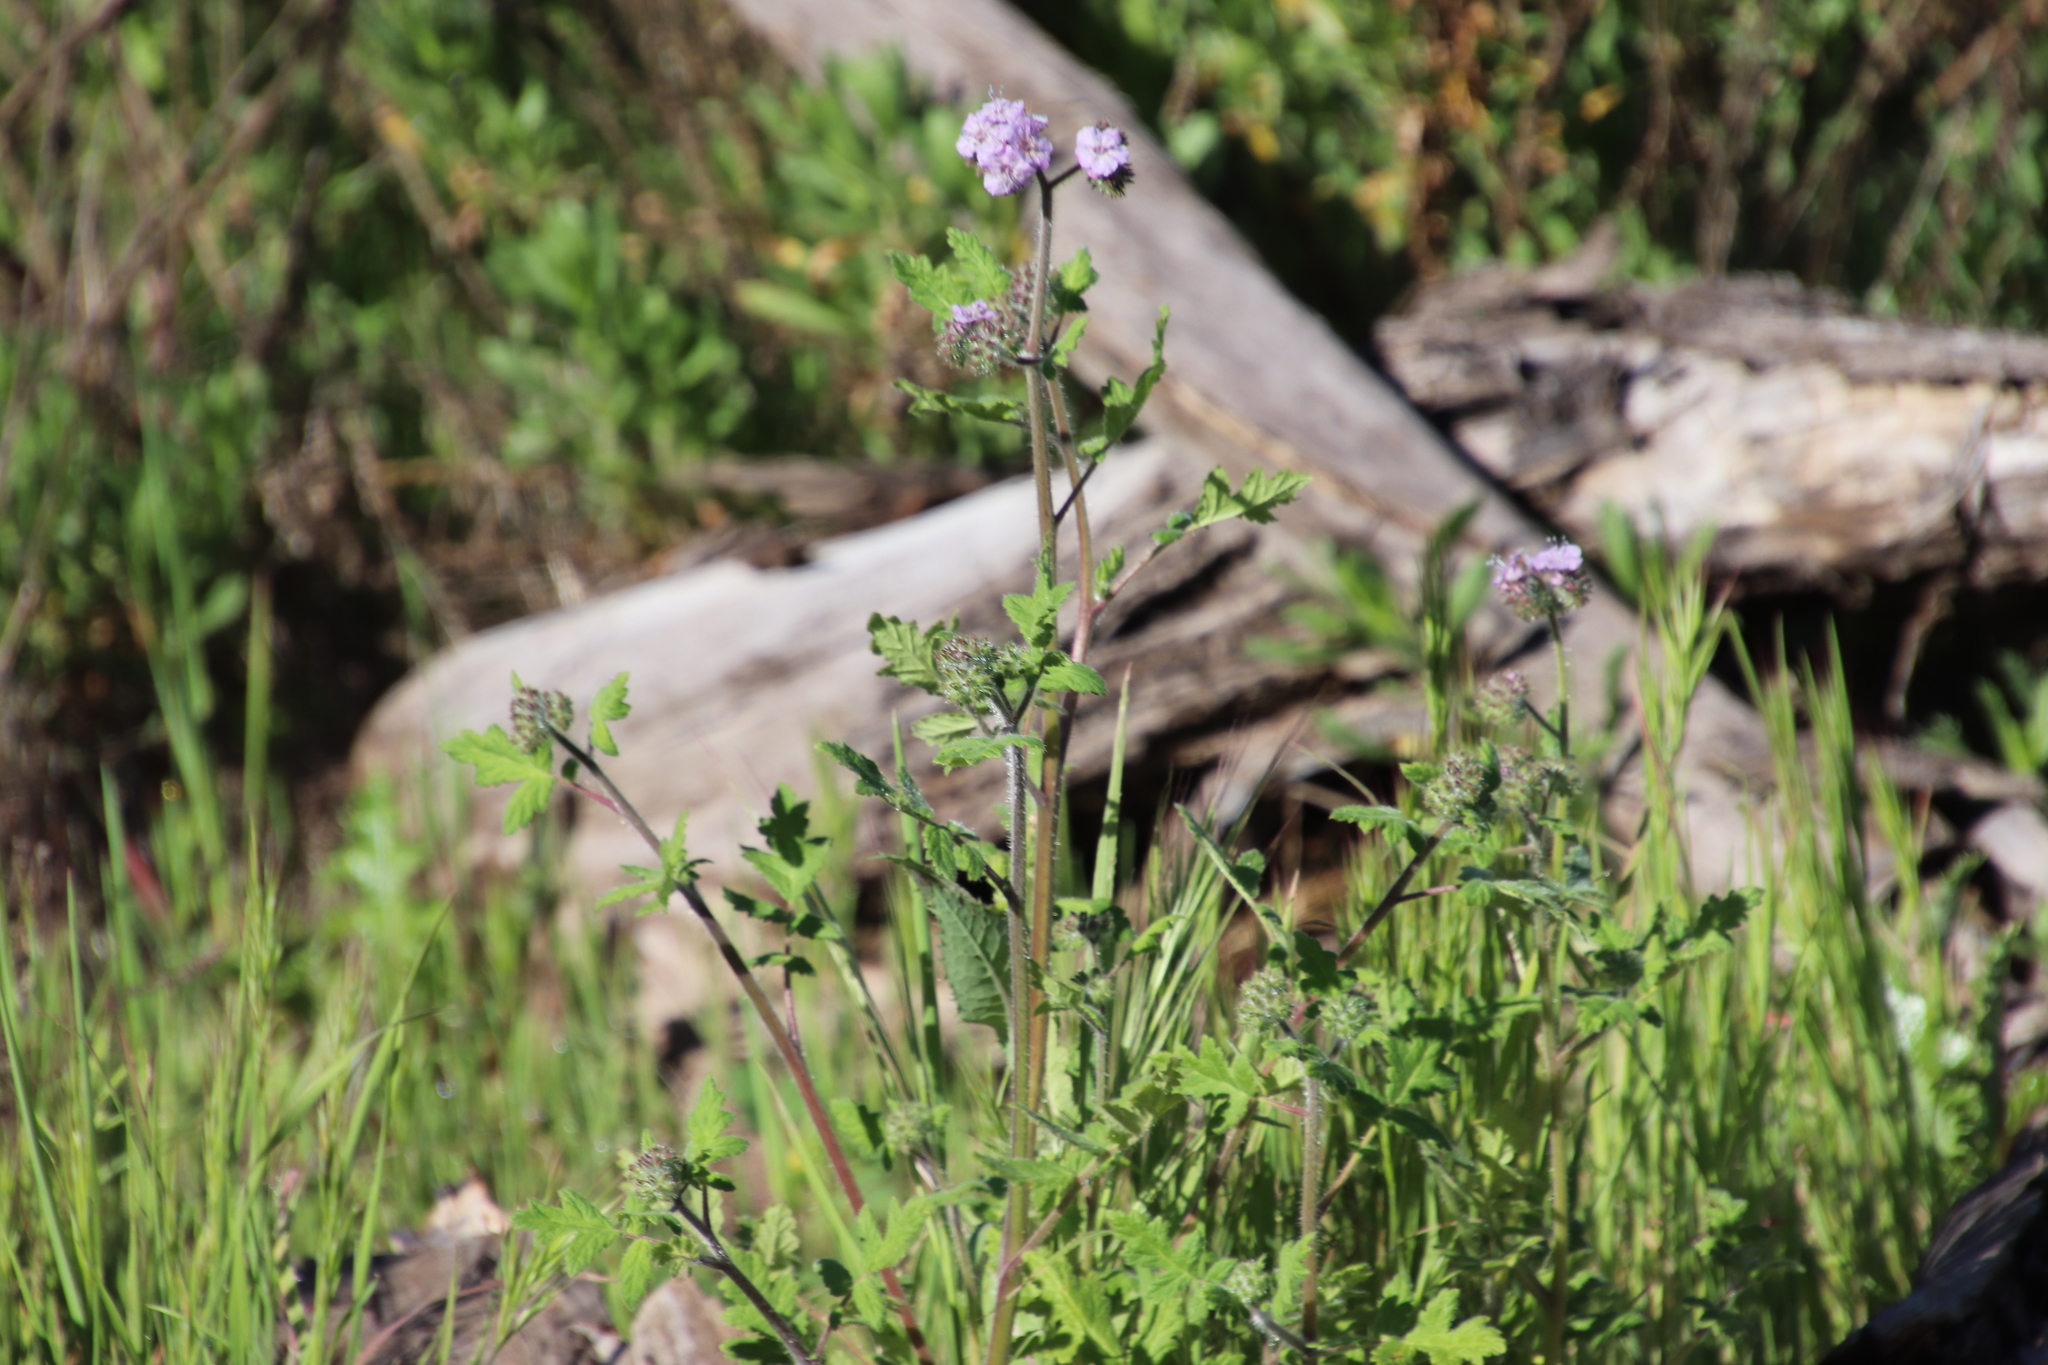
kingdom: Plantae
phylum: Tracheophyta
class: Magnoliopsida
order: Boraginales
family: Hydrophyllaceae
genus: Phacelia
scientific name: Phacelia cicutaria
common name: Caterpillar phacelia
